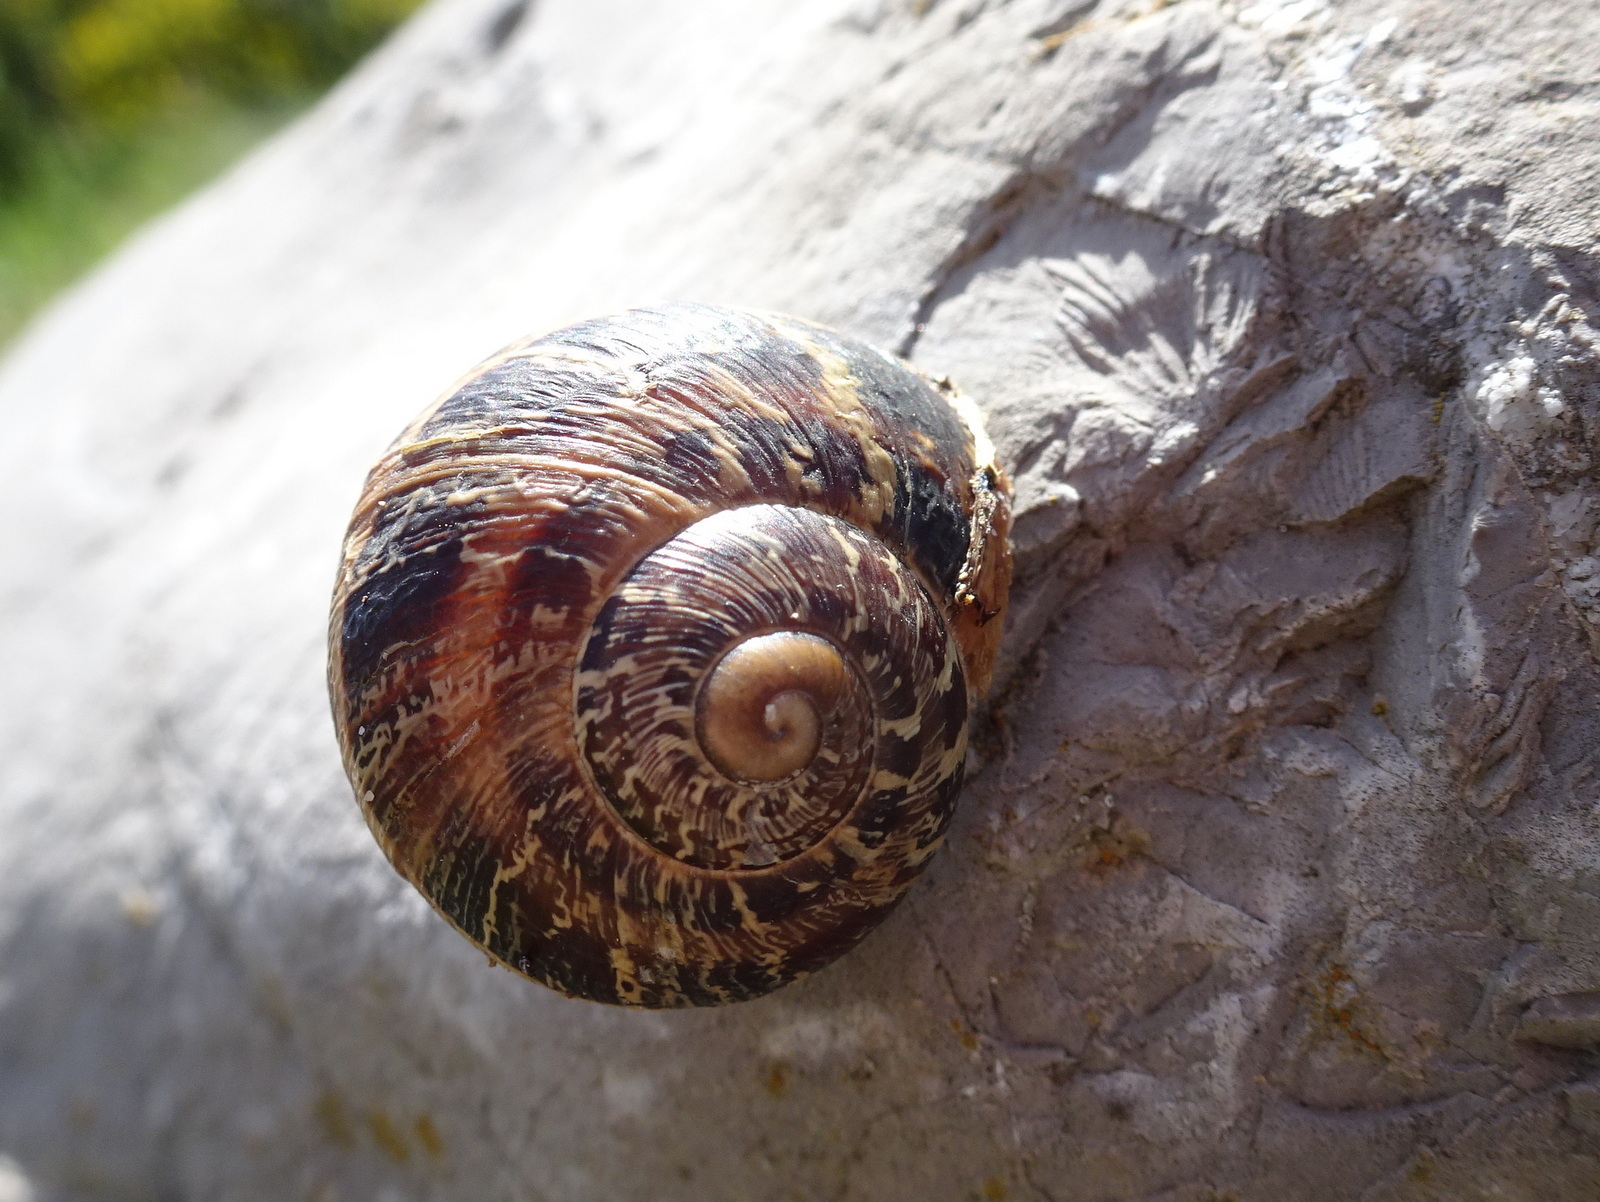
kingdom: Animalia
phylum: Mollusca
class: Gastropoda
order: Stylommatophora
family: Helicidae
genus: Cornu
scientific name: Cornu aspersum
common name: Brown garden snail
